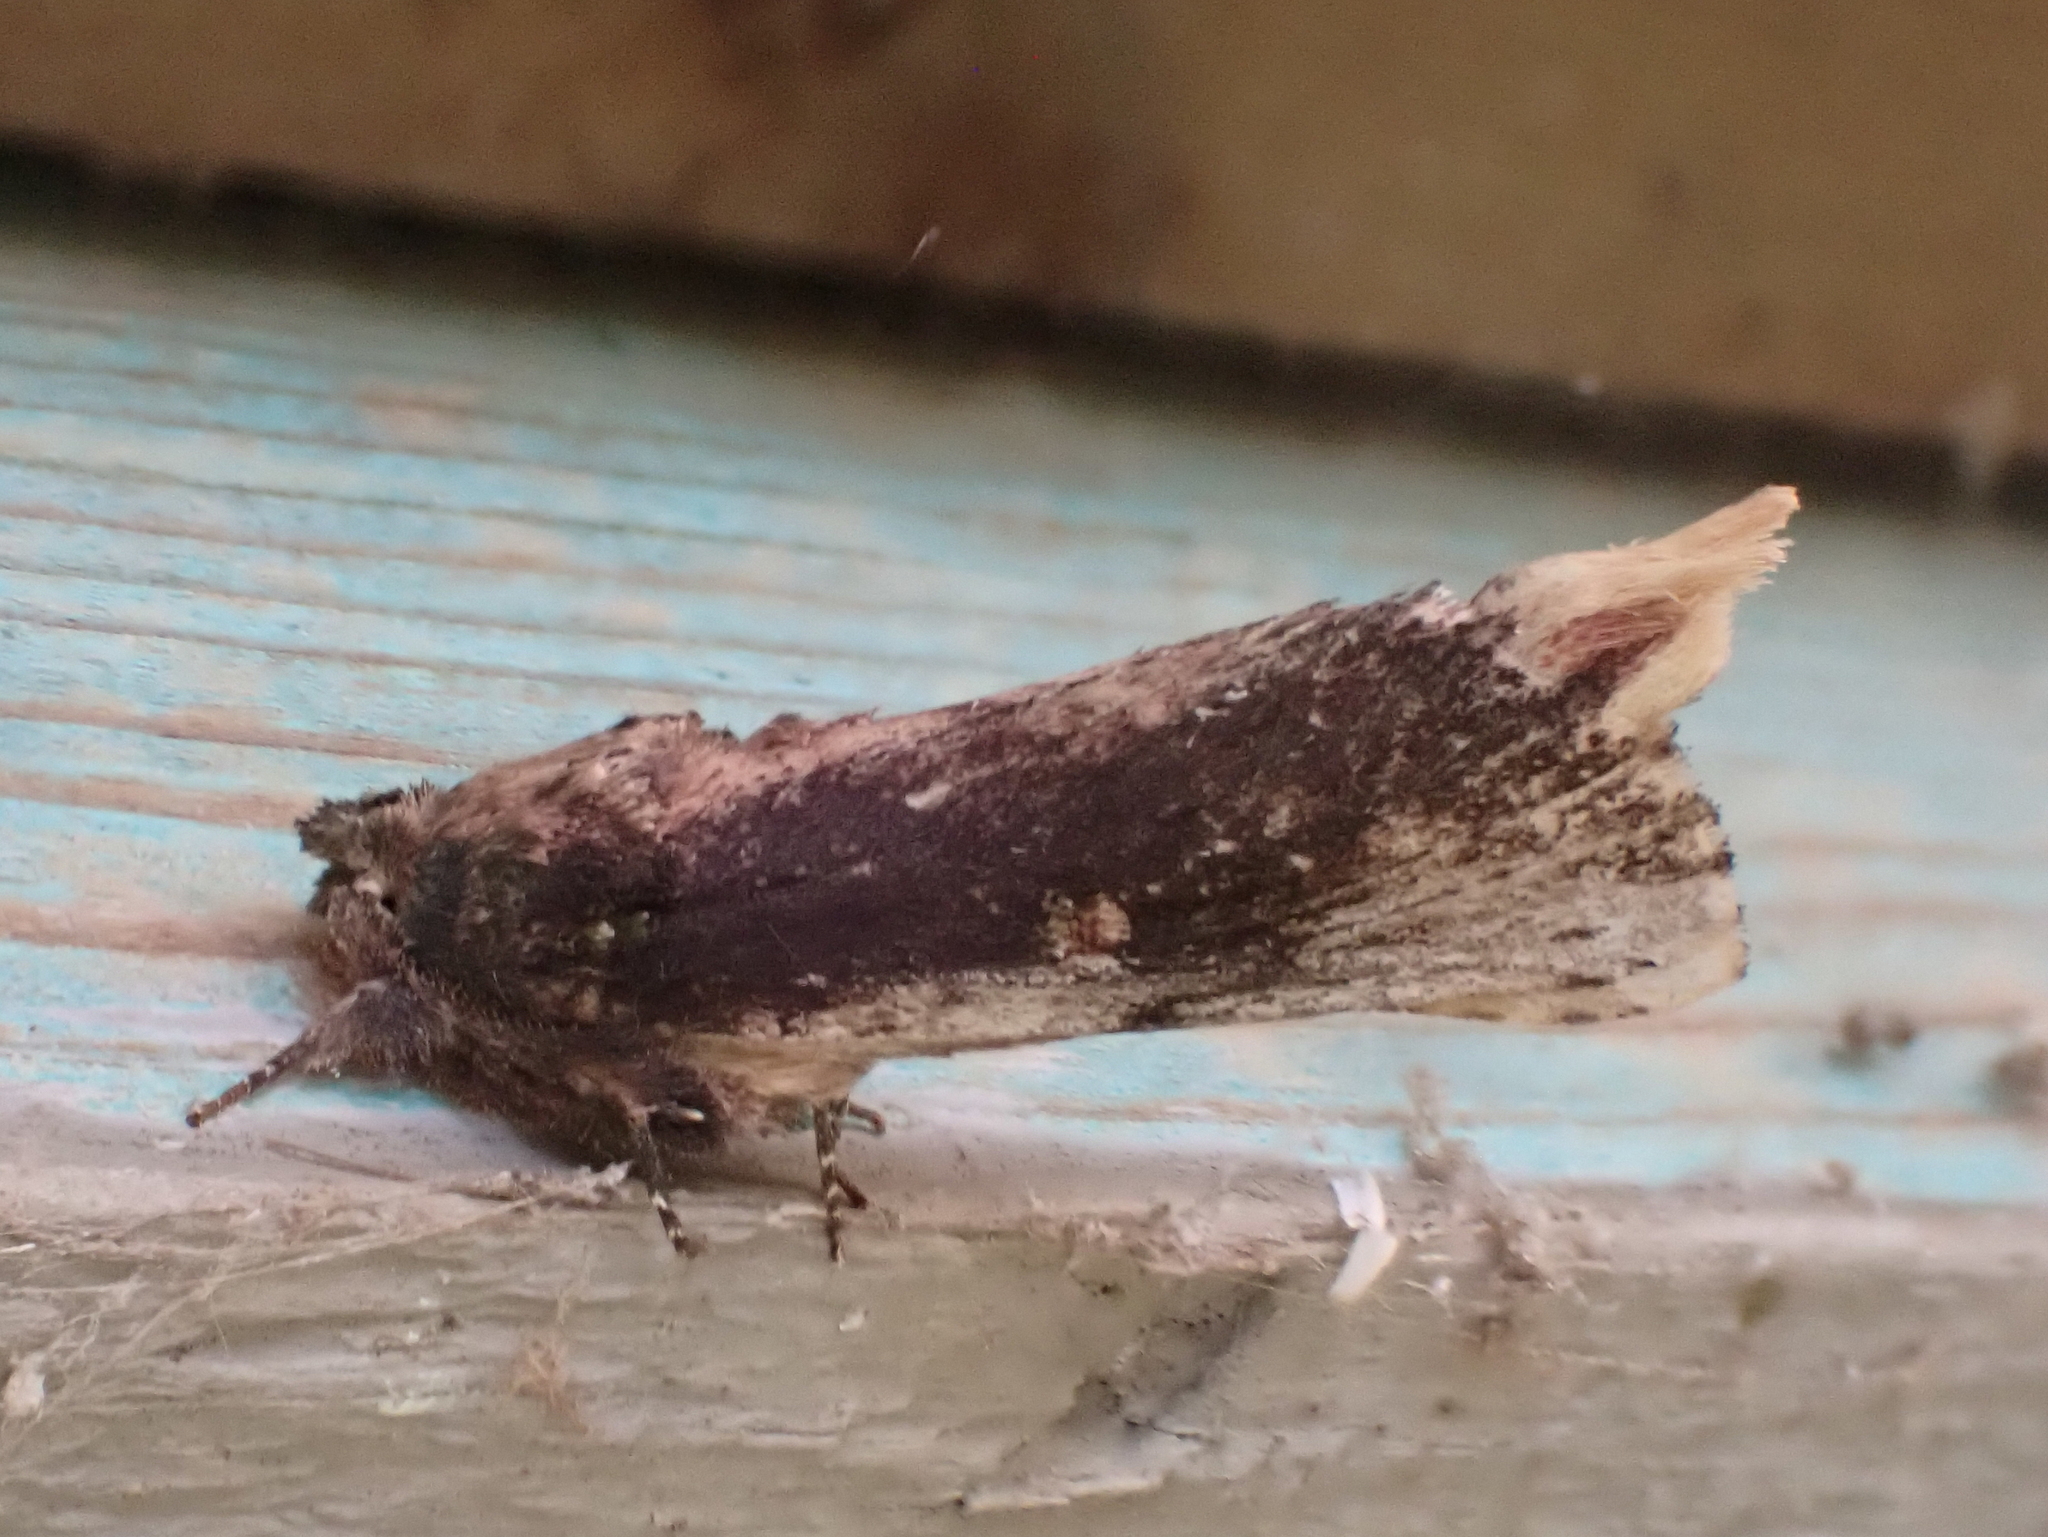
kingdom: Animalia
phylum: Arthropoda
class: Insecta
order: Lepidoptera
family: Notodontidae
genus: Schizura
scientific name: Schizura ipomaeae
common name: Morning-glory prominent
